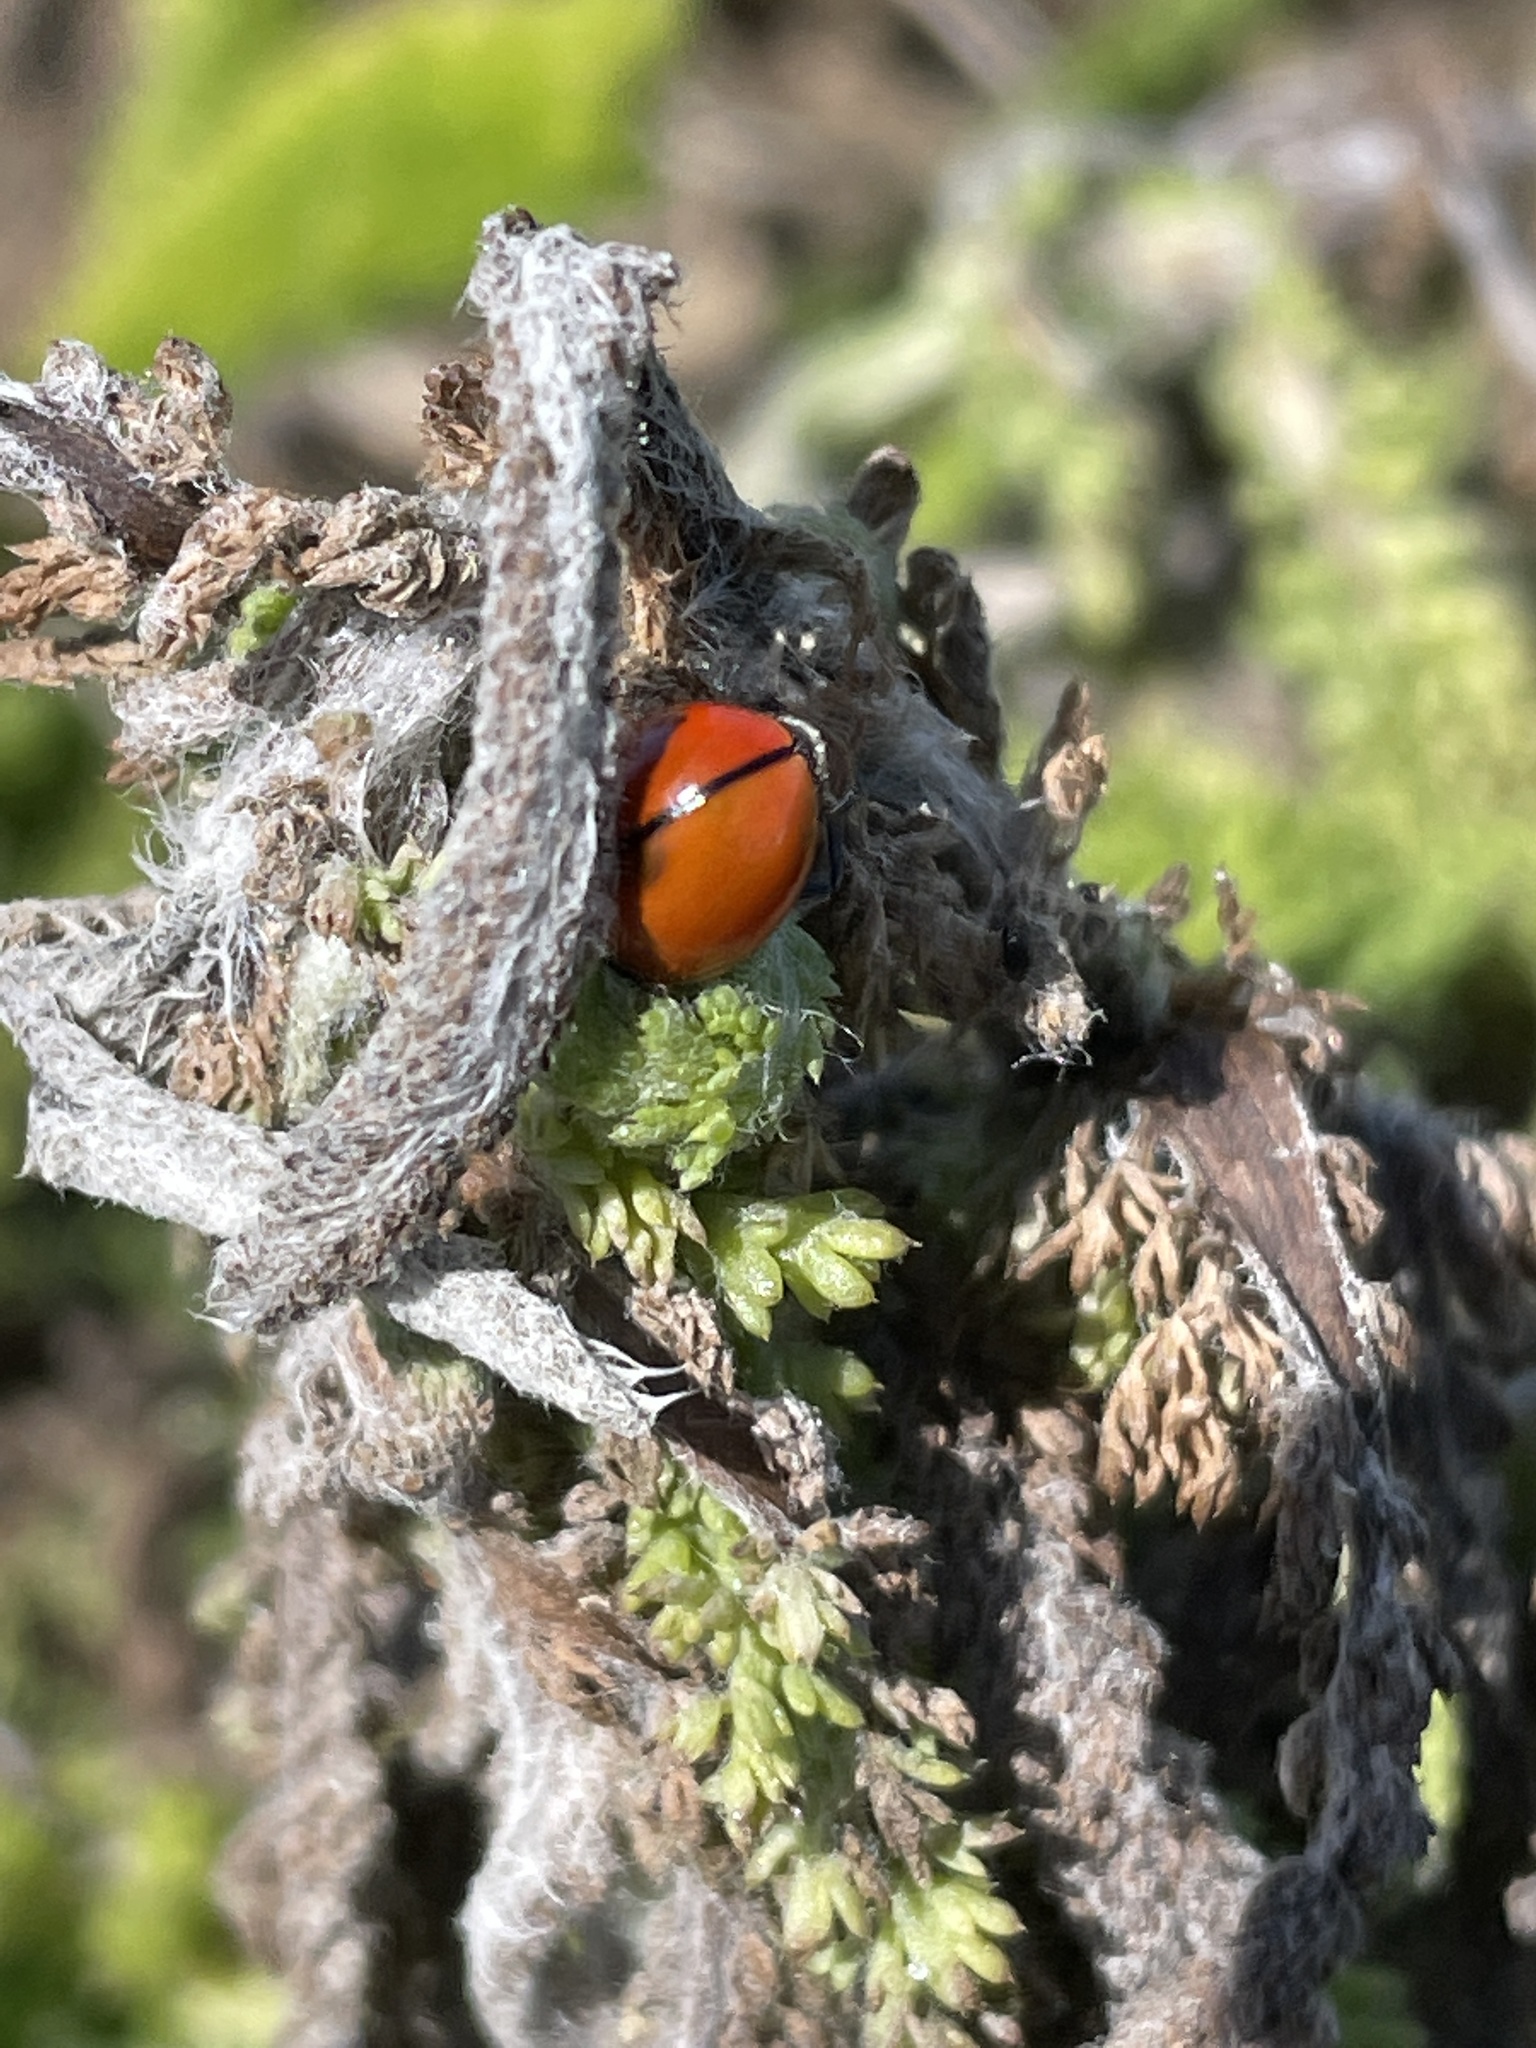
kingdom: Animalia
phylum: Arthropoda
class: Insecta
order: Coleoptera
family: Coccinellidae
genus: Coccinella
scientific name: Coccinella californica
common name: Lady beetle
